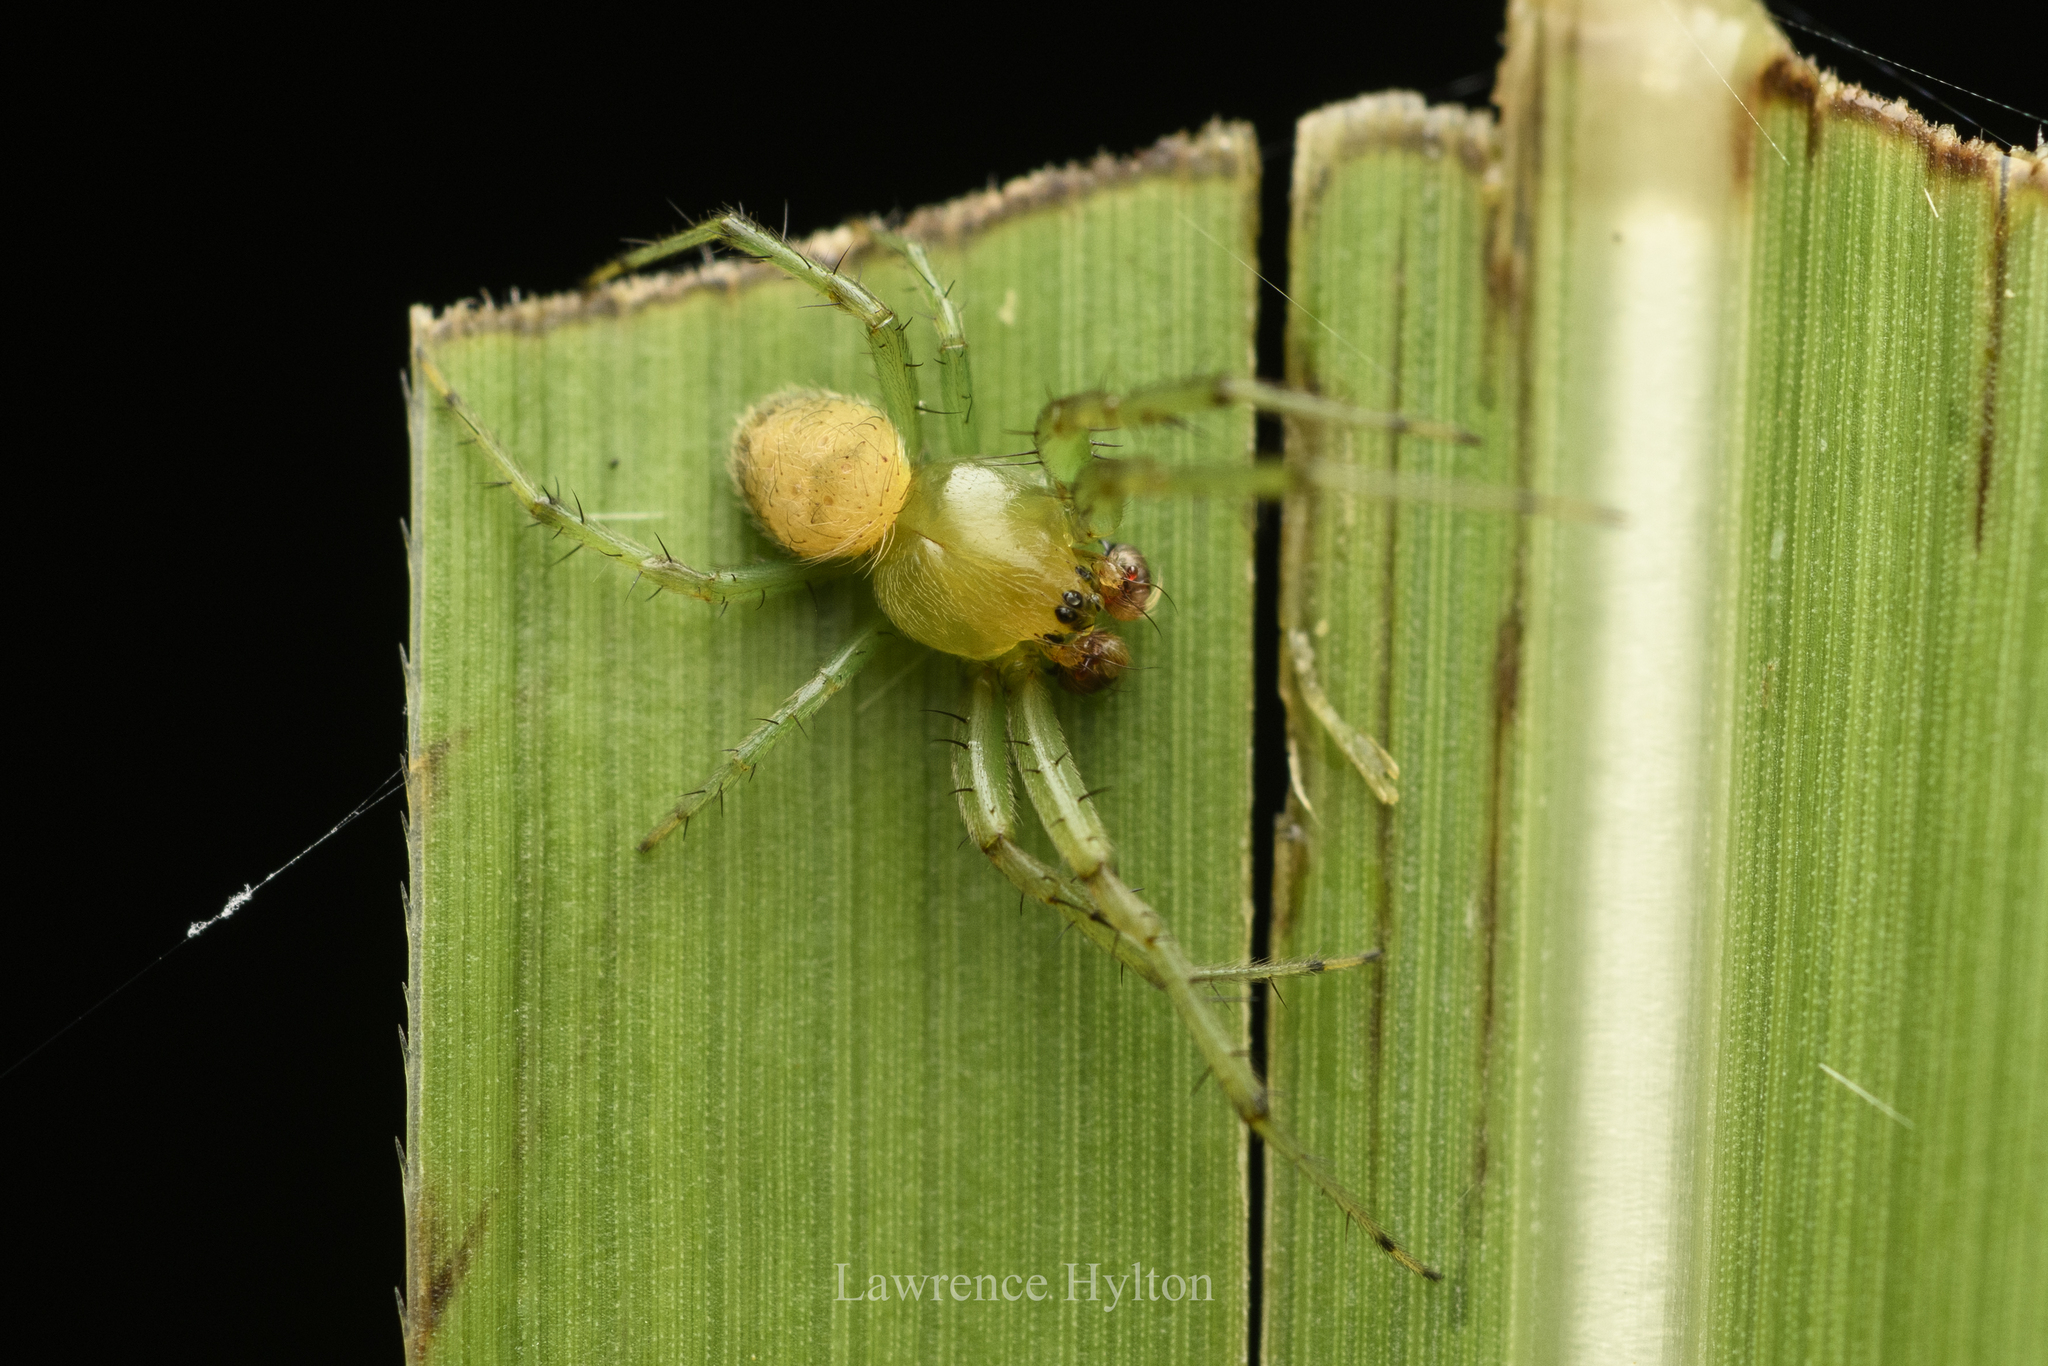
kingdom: Animalia
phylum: Arthropoda
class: Arachnida
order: Araneae
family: Araneidae
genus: Bijoaraneus
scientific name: Bijoaraneus mitificus
